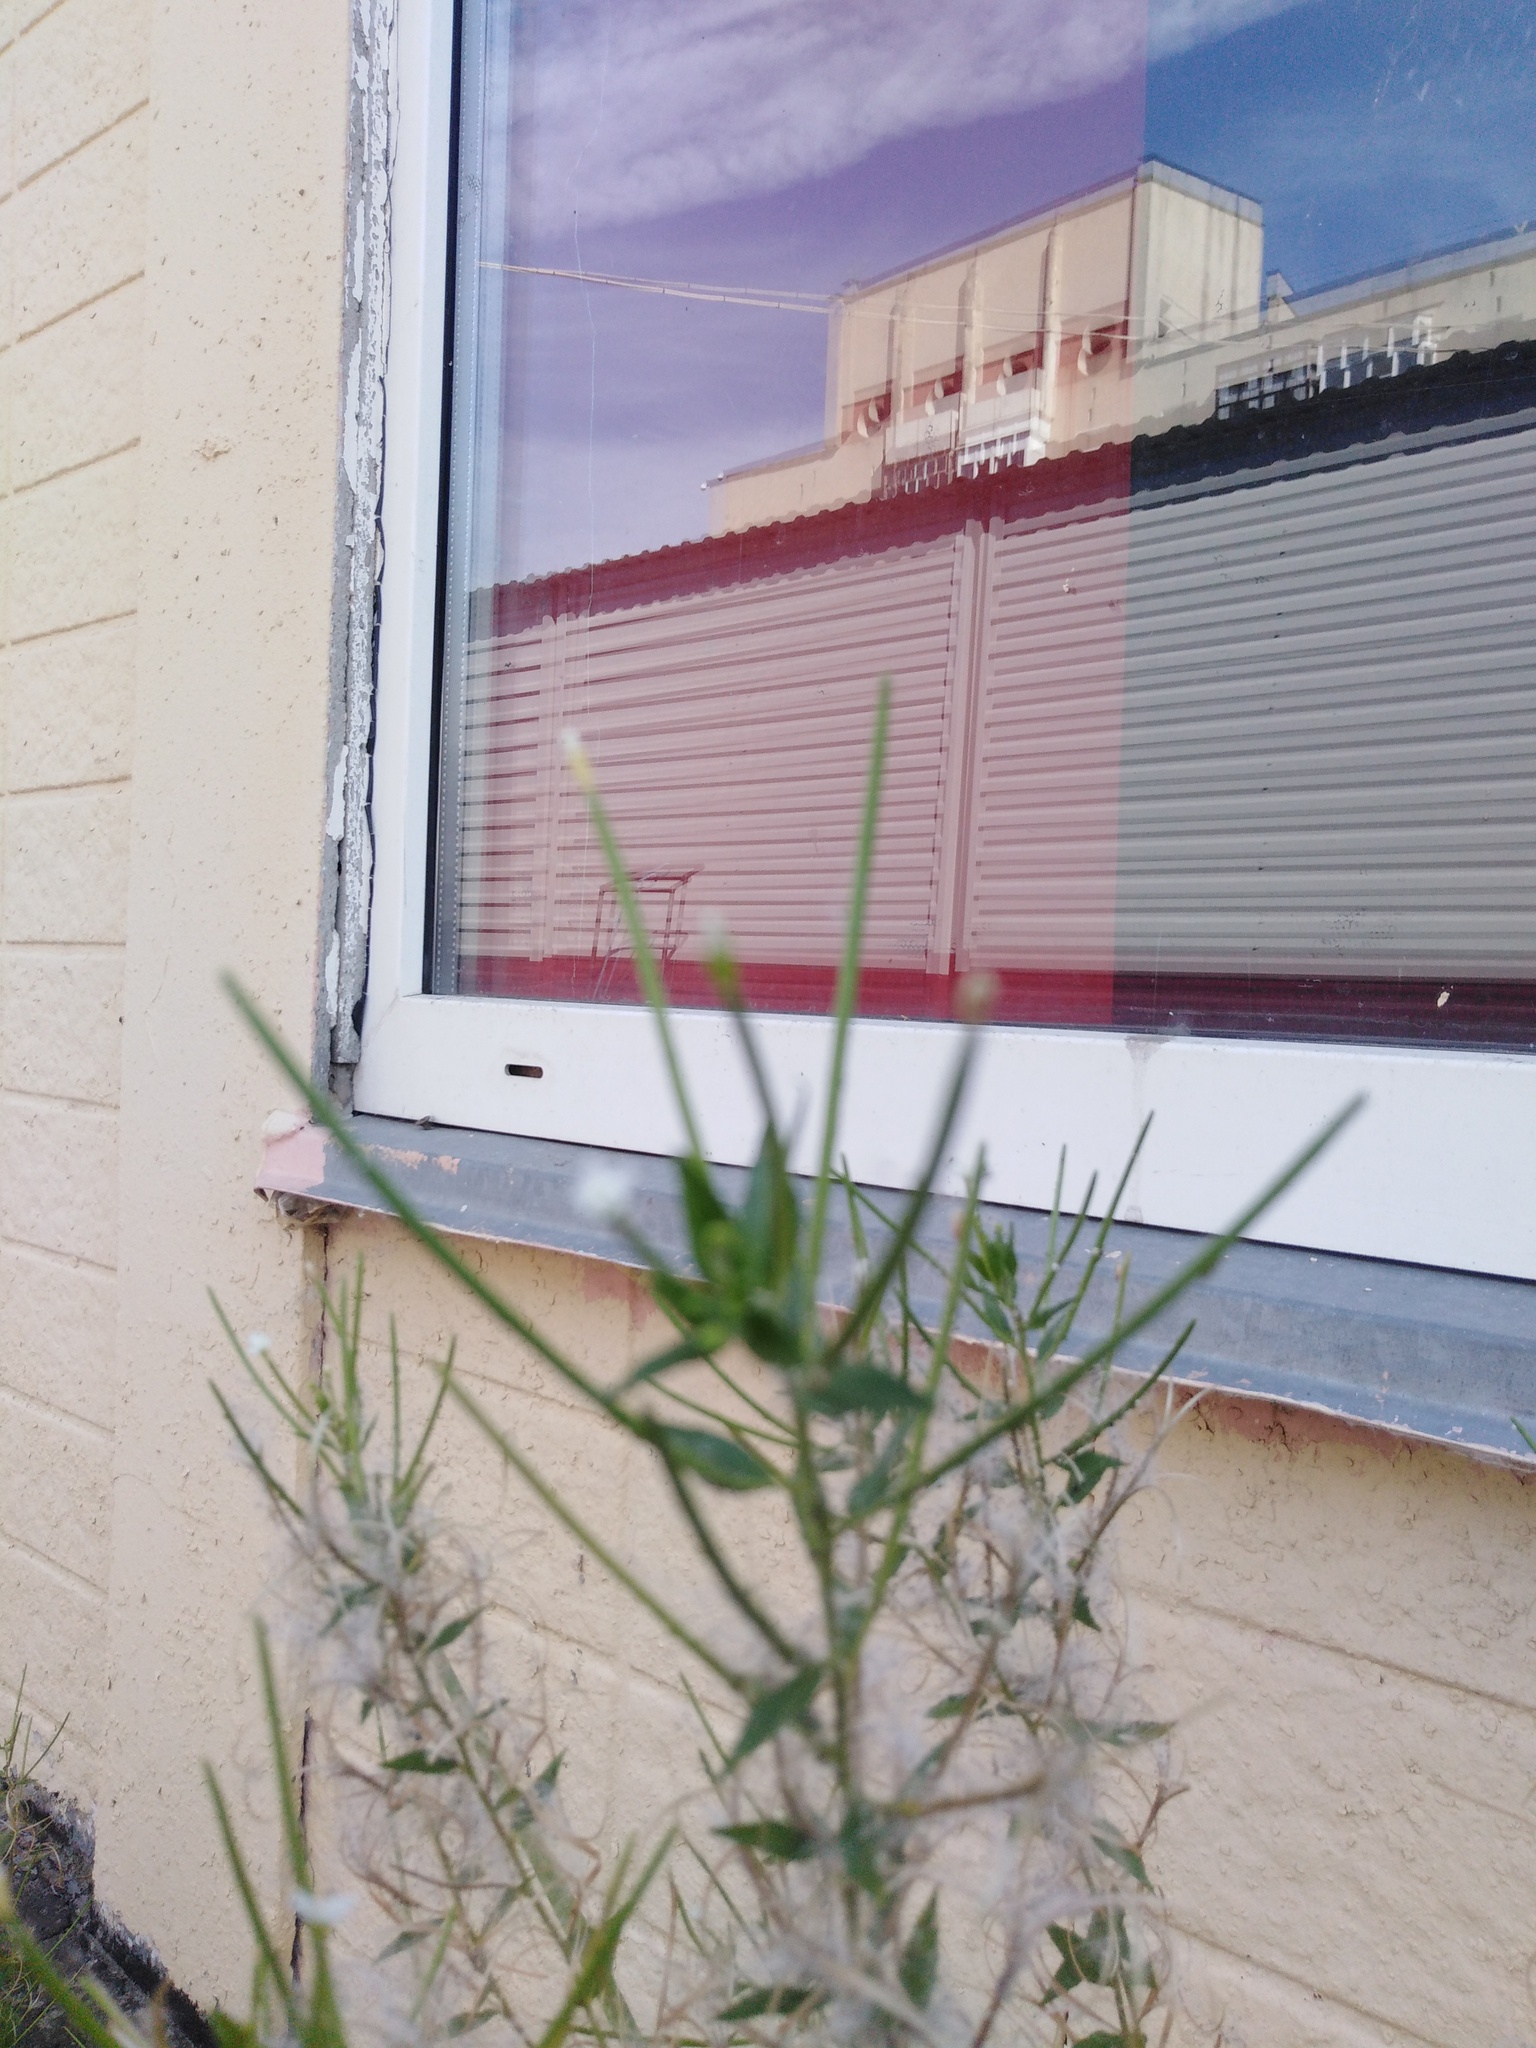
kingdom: Plantae
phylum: Tracheophyta
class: Magnoliopsida
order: Myrtales
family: Onagraceae
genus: Epilobium
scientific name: Epilobium pseudorubescens
